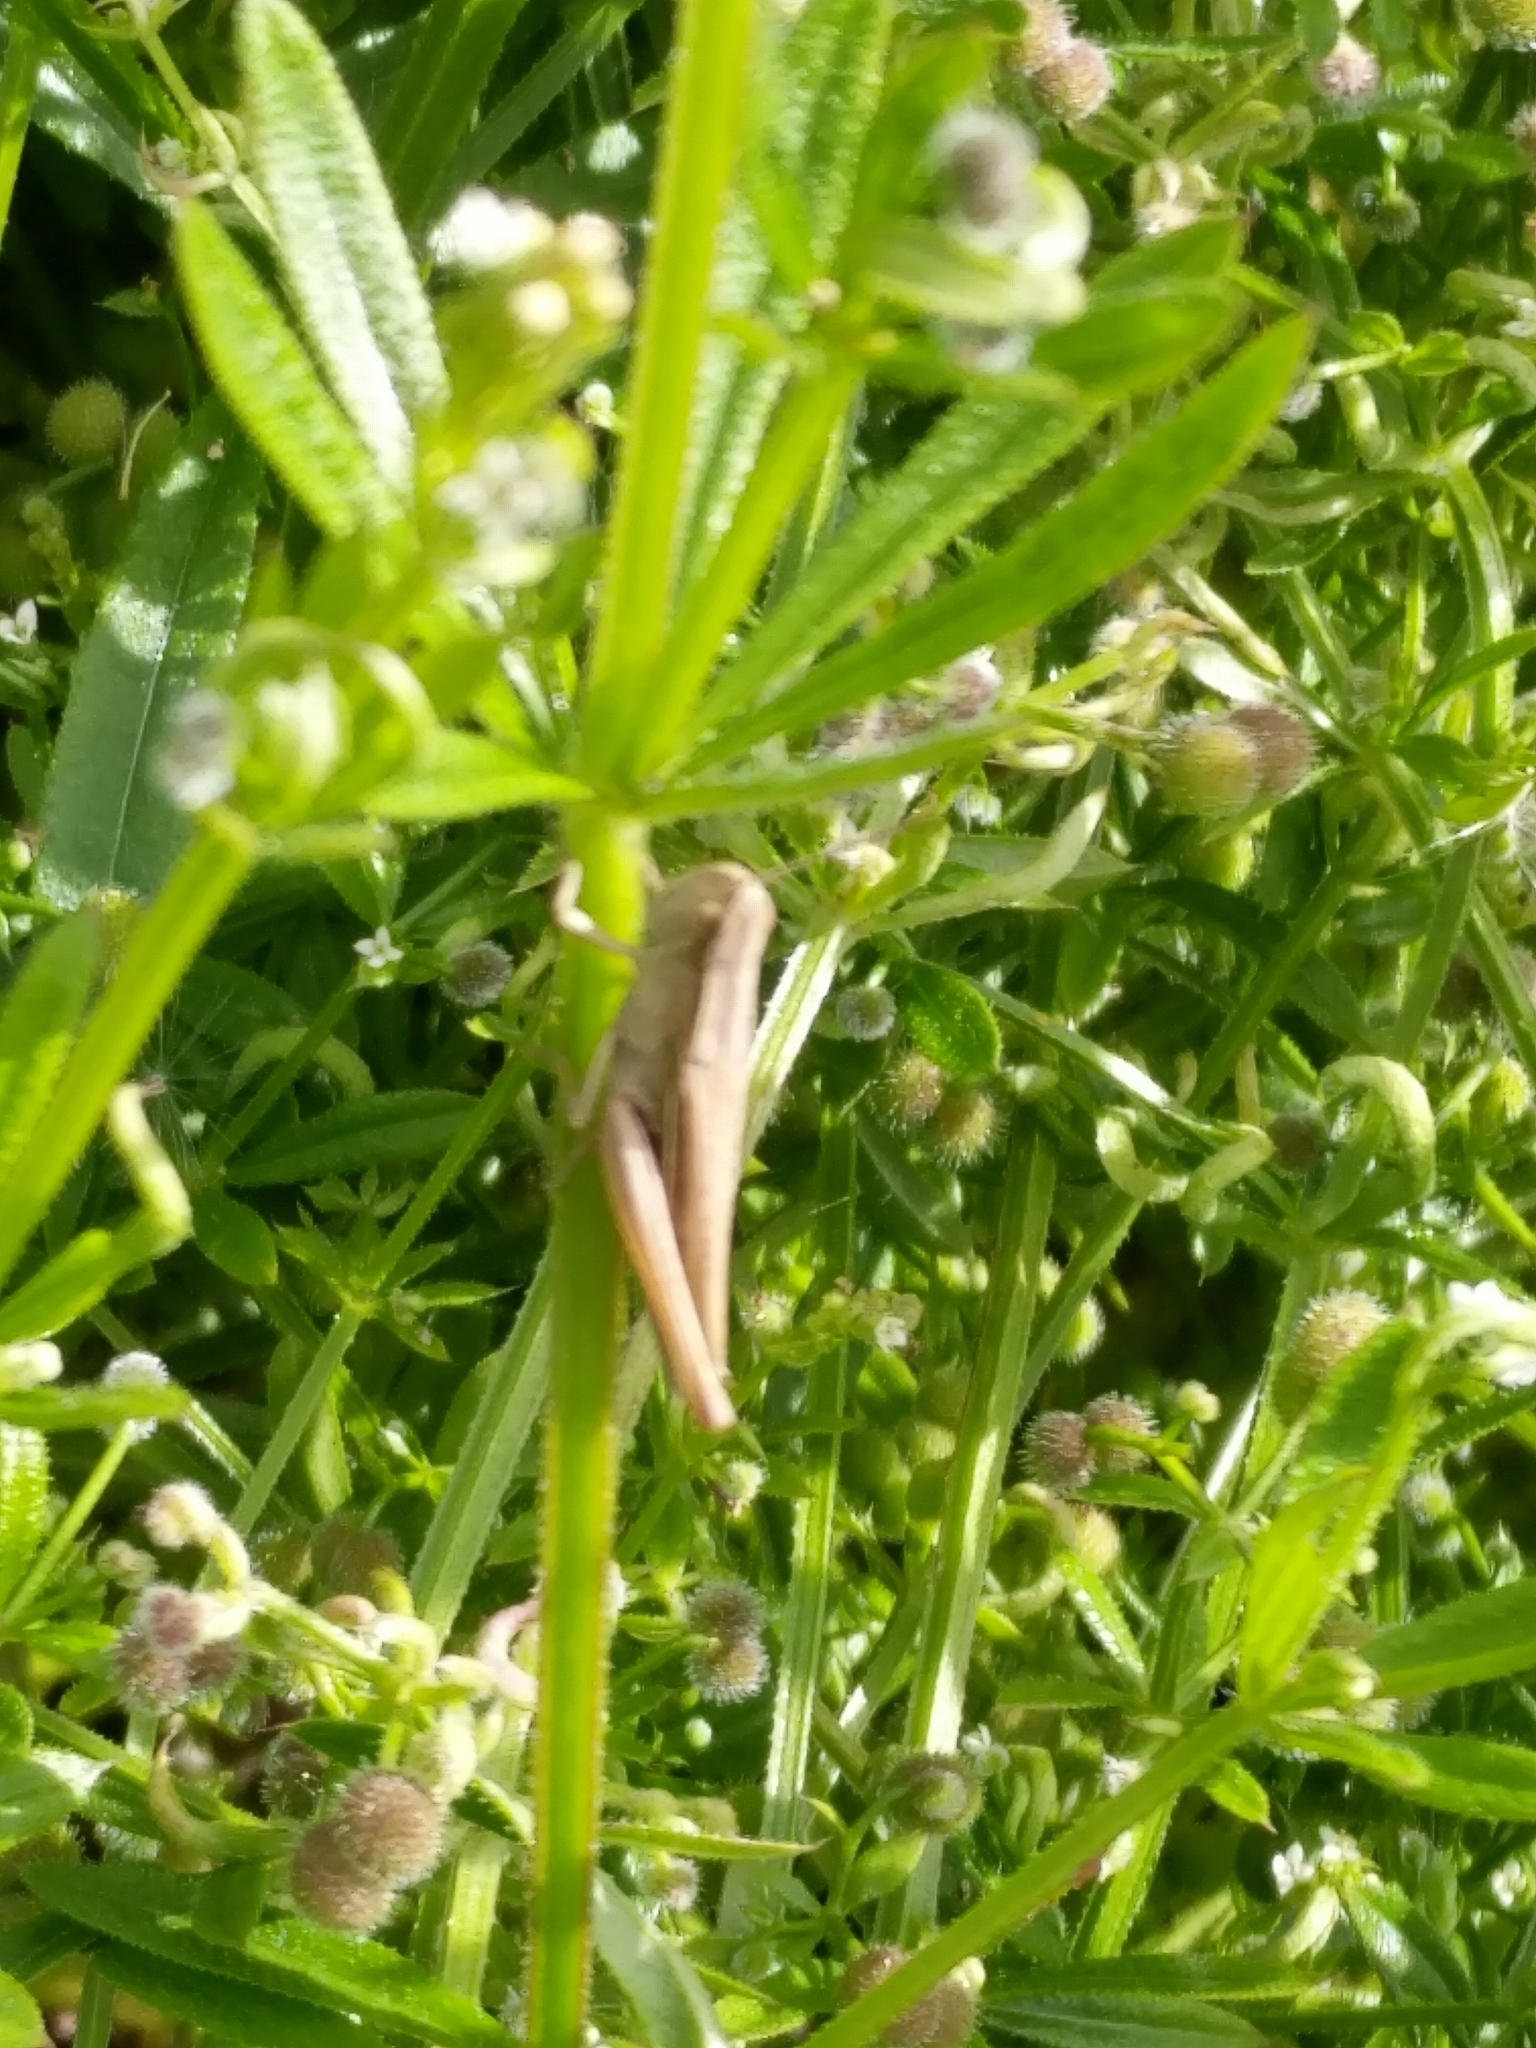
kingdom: Animalia
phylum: Arthropoda
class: Insecta
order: Orthoptera
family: Acrididae
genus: Chorthippus
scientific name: Chorthippus albomarginatus
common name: Lesser marsh grasshopper
